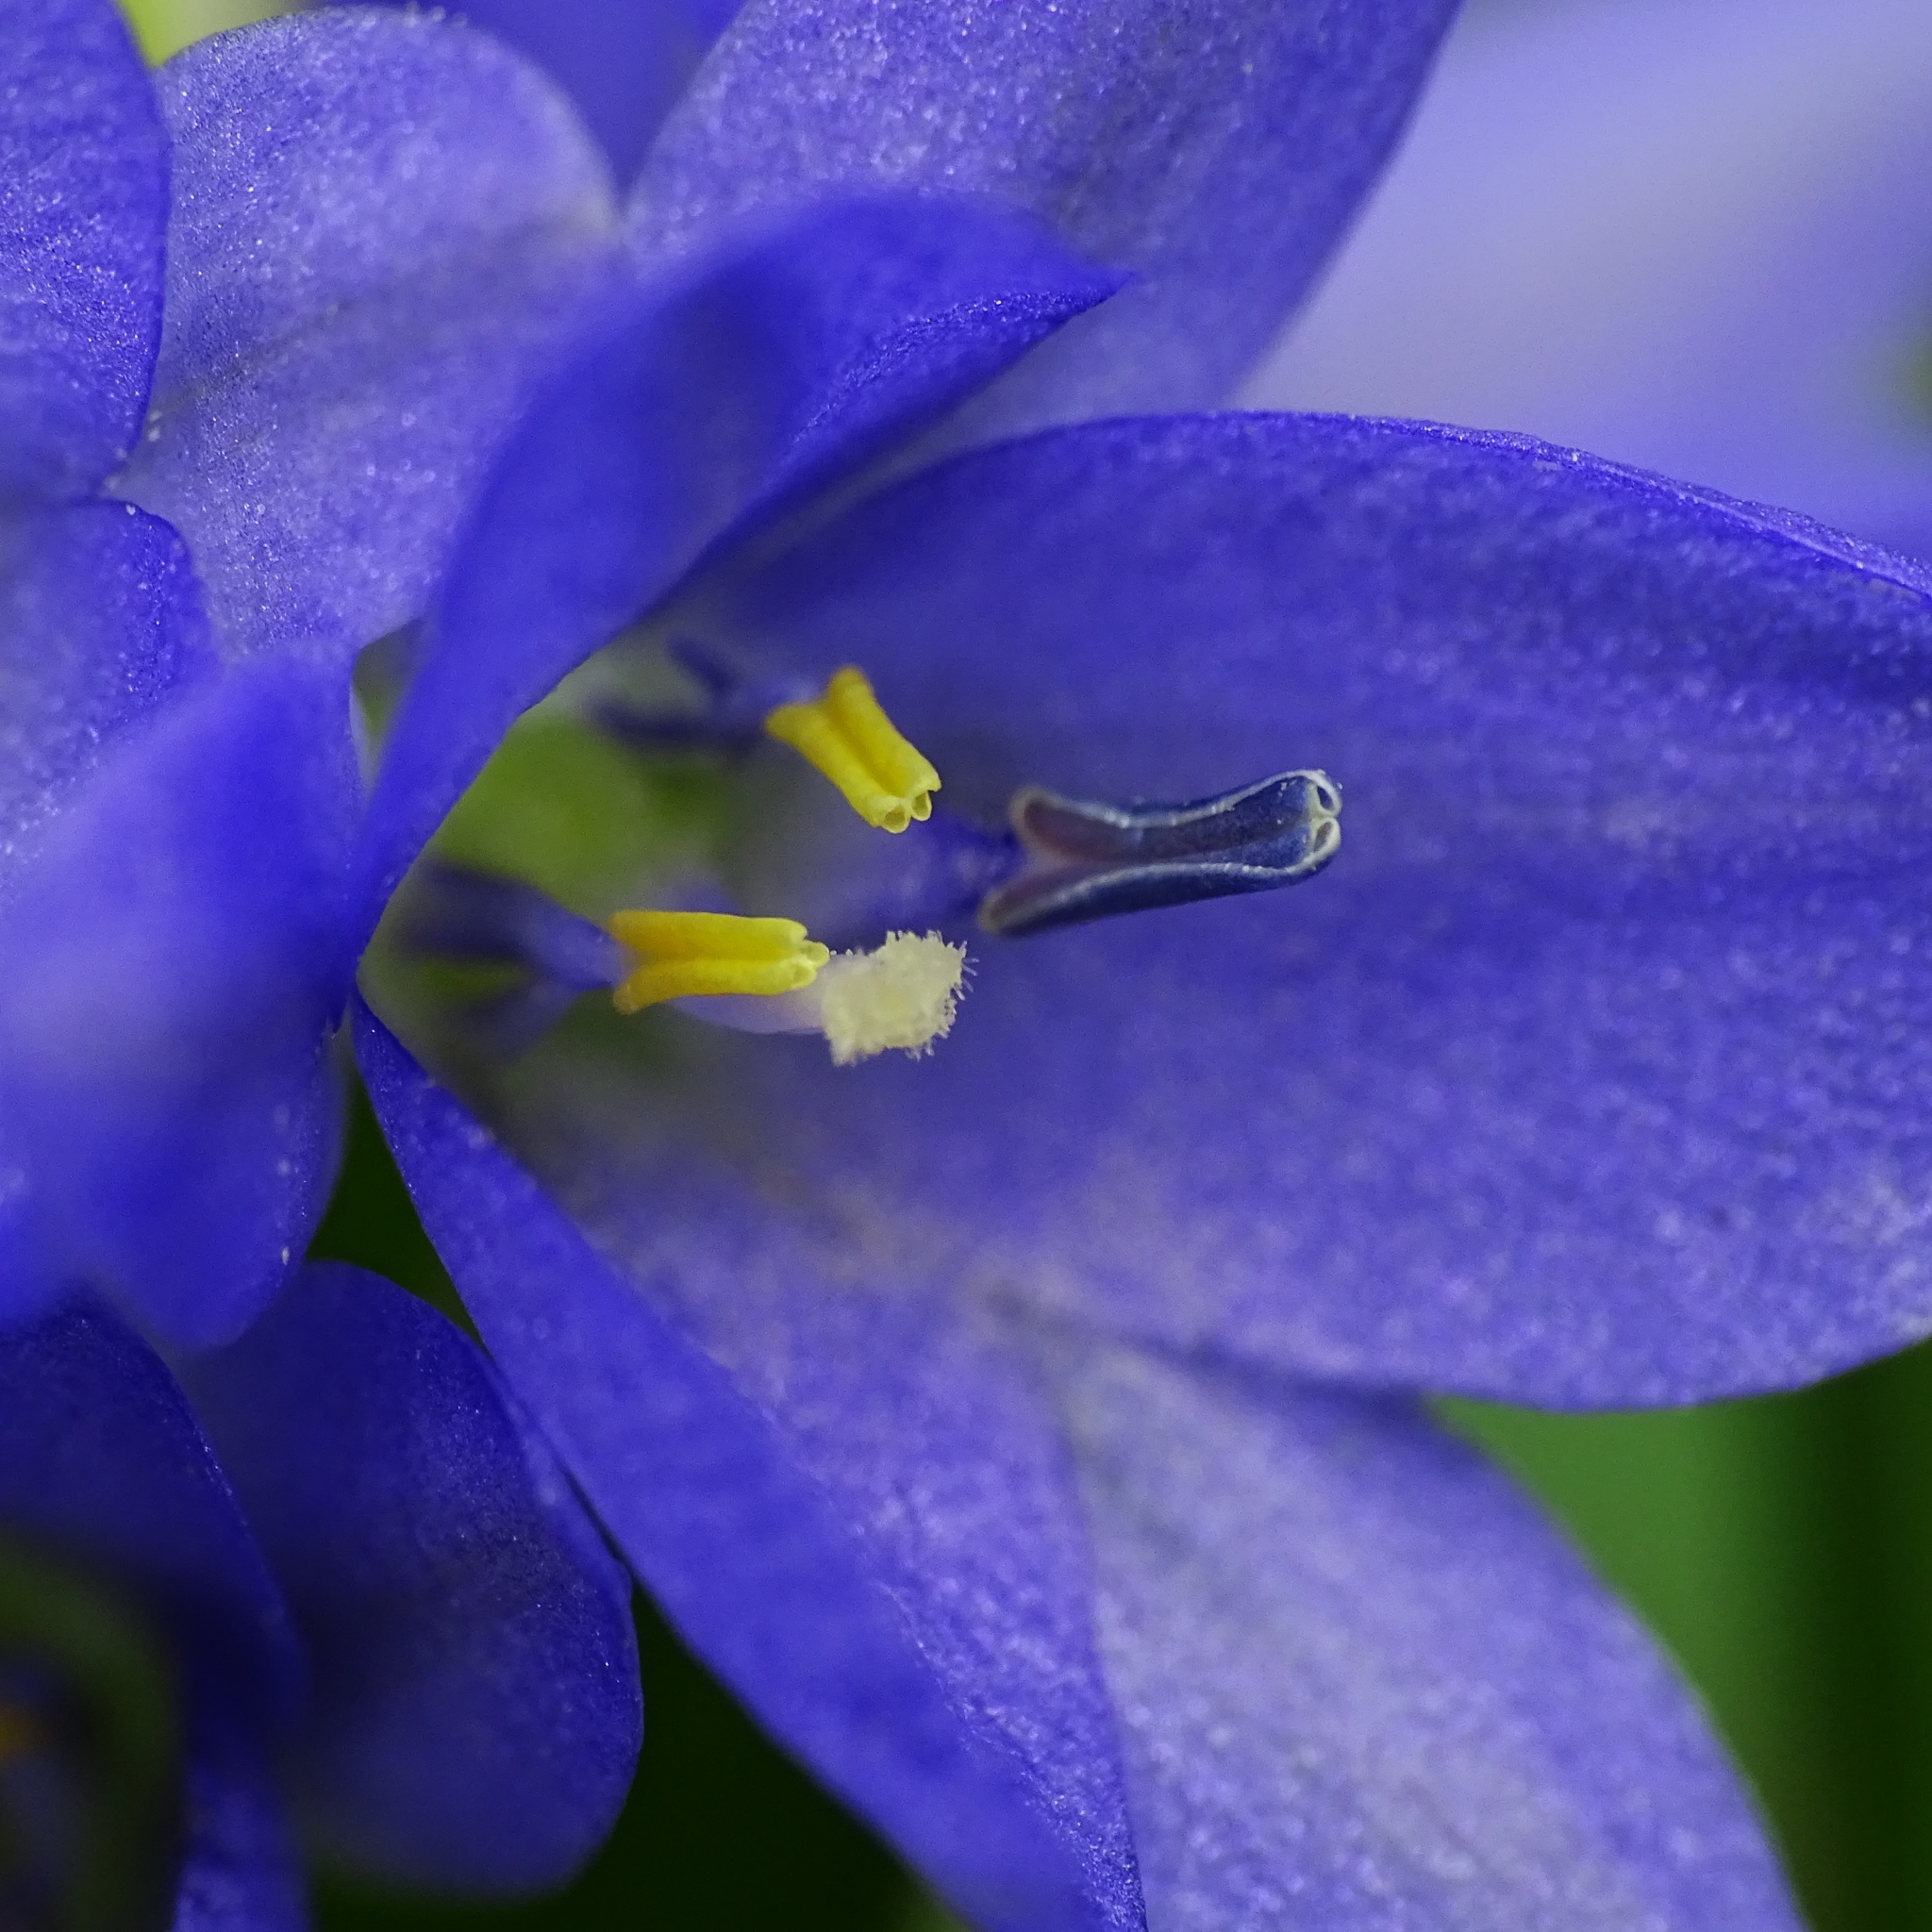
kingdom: Plantae
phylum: Tracheophyta
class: Liliopsida
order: Commelinales
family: Pontederiaceae
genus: Pontederia
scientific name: Pontederia vaginalis
